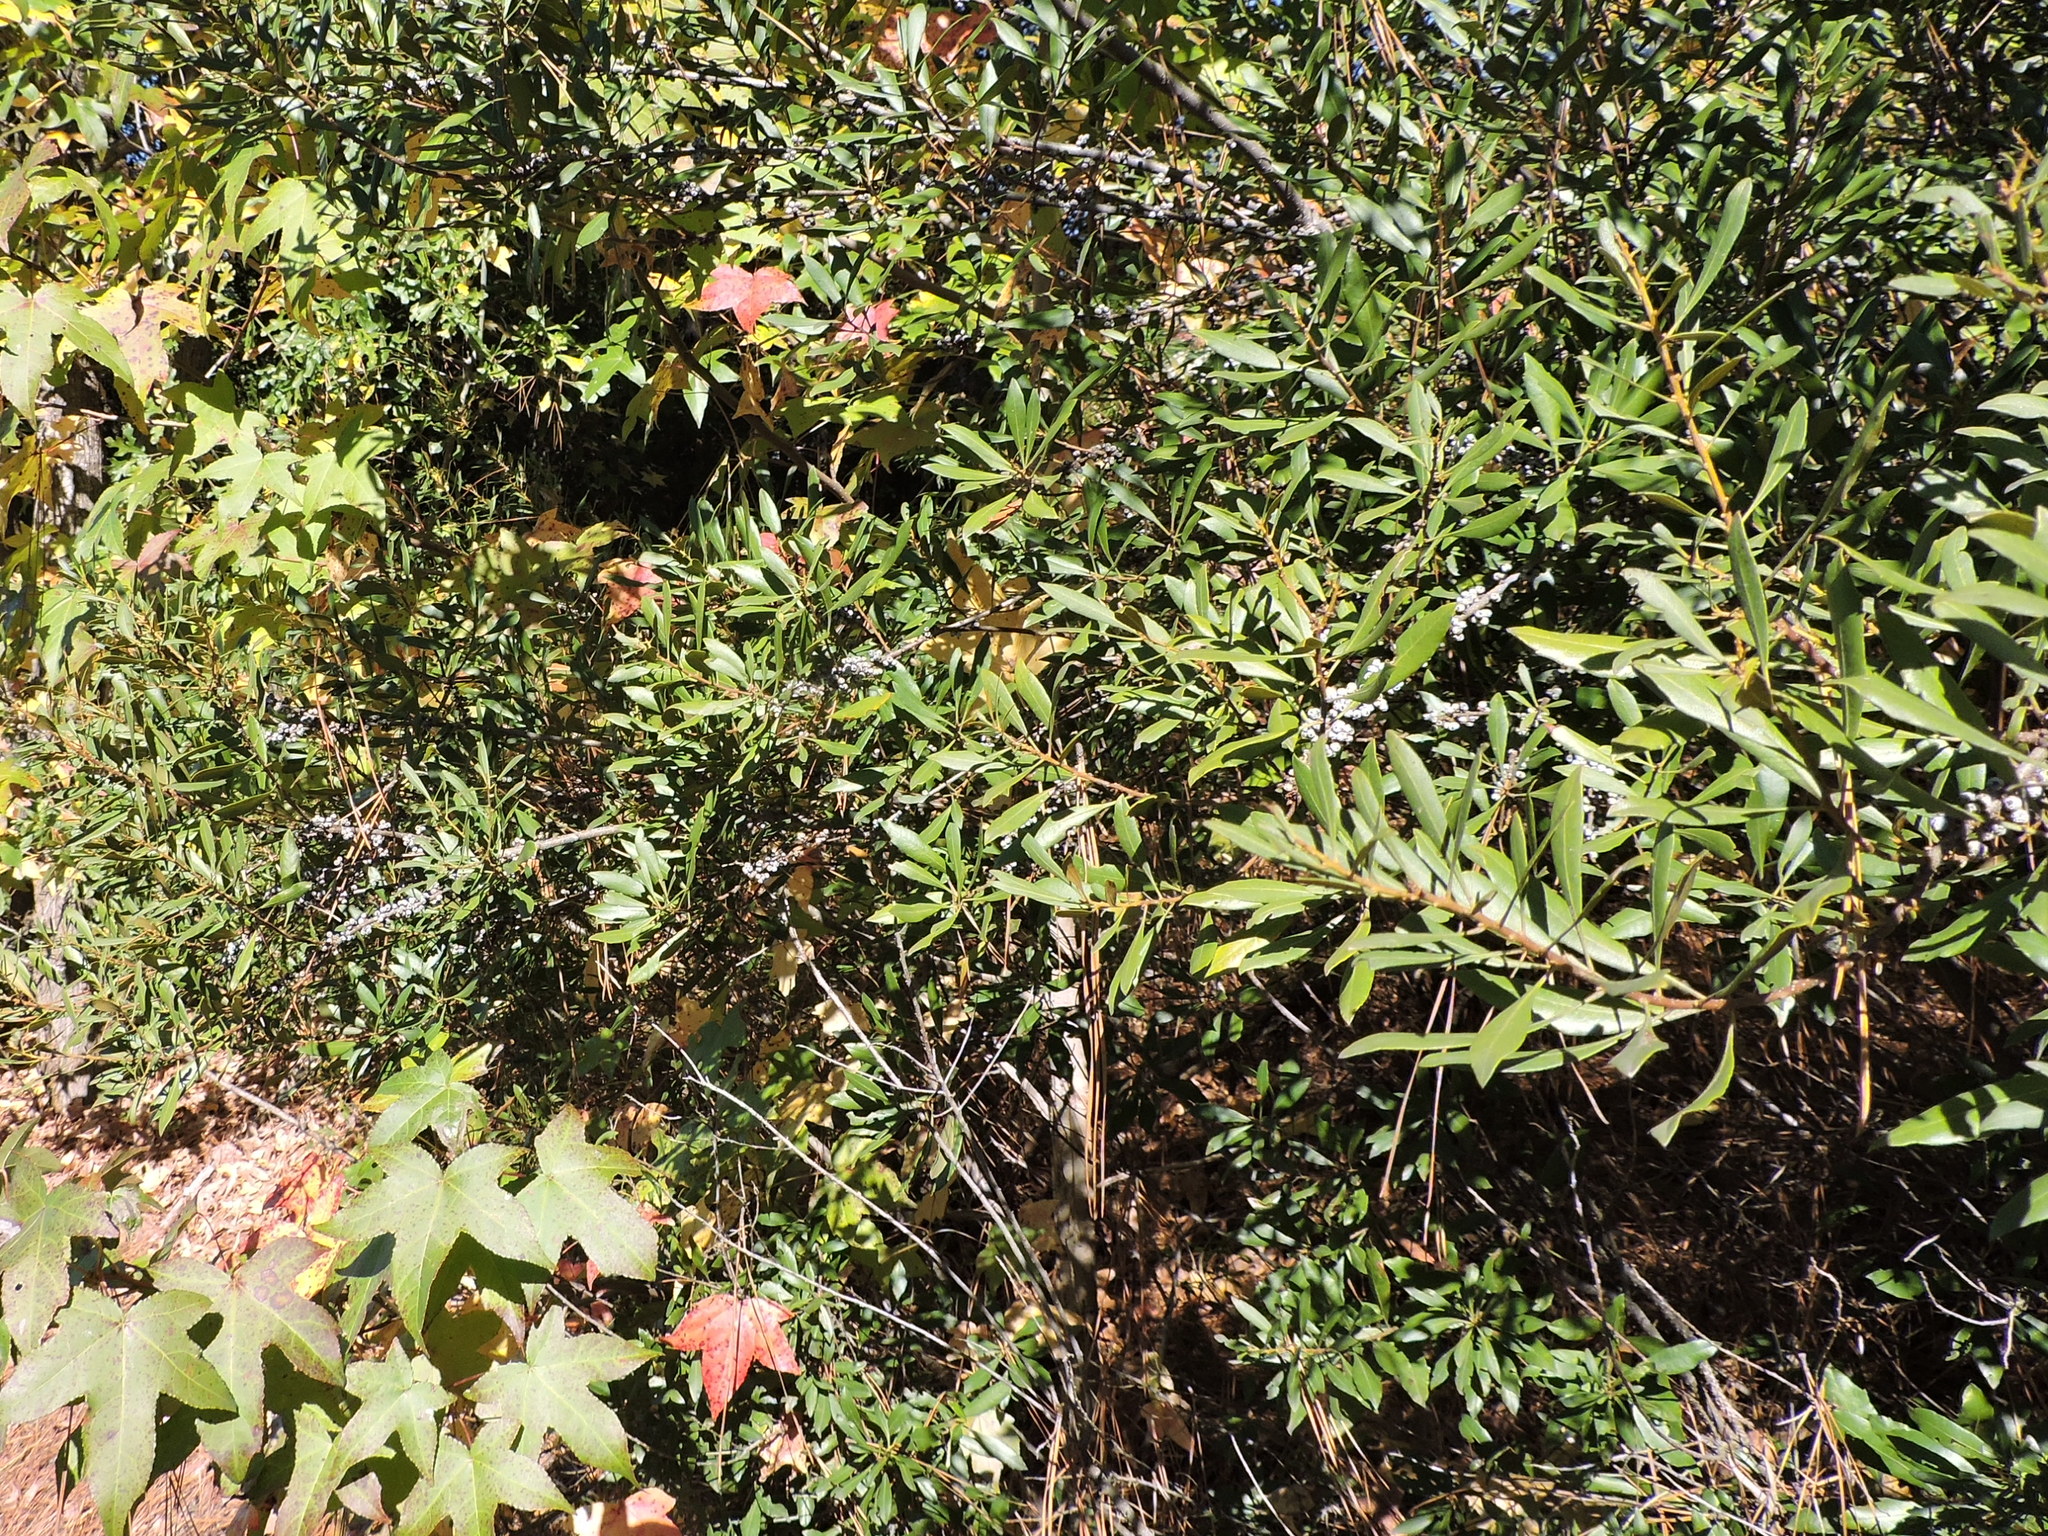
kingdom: Plantae
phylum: Tracheophyta
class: Magnoliopsida
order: Fagales
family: Myricaceae
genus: Morella
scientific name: Morella cerifera
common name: Wax myrtle
